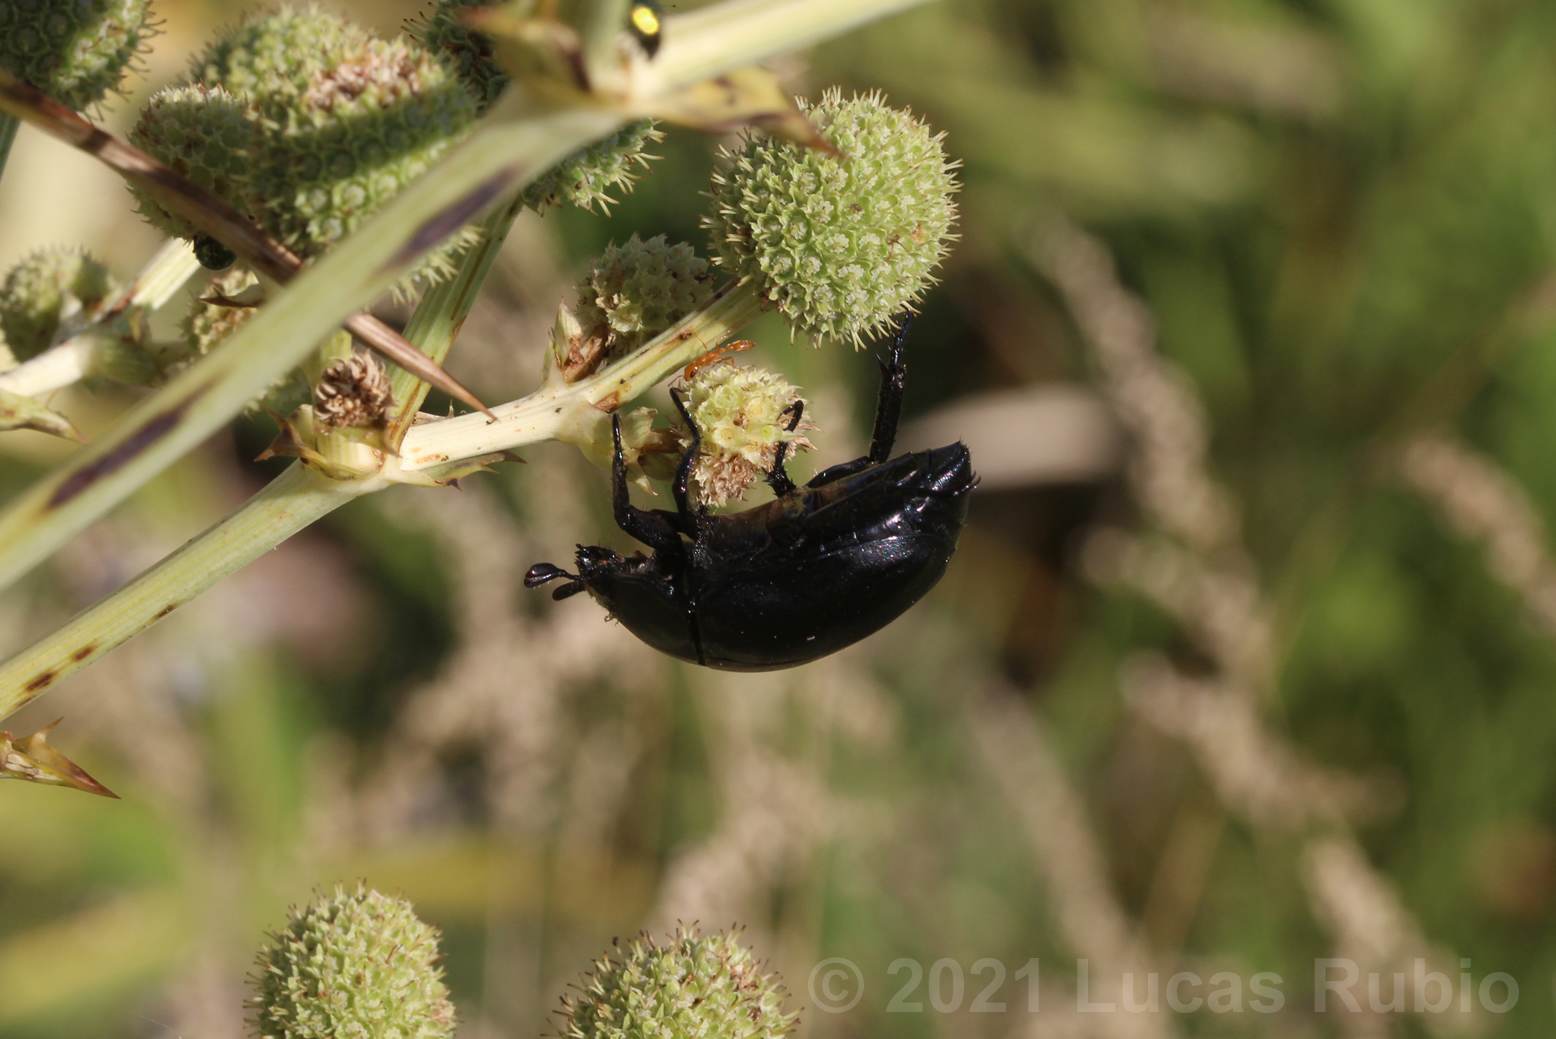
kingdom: Animalia
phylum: Arthropoda
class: Insecta
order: Coleoptera
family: Scarabaeidae
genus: Macraspis
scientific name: Macraspis morio
